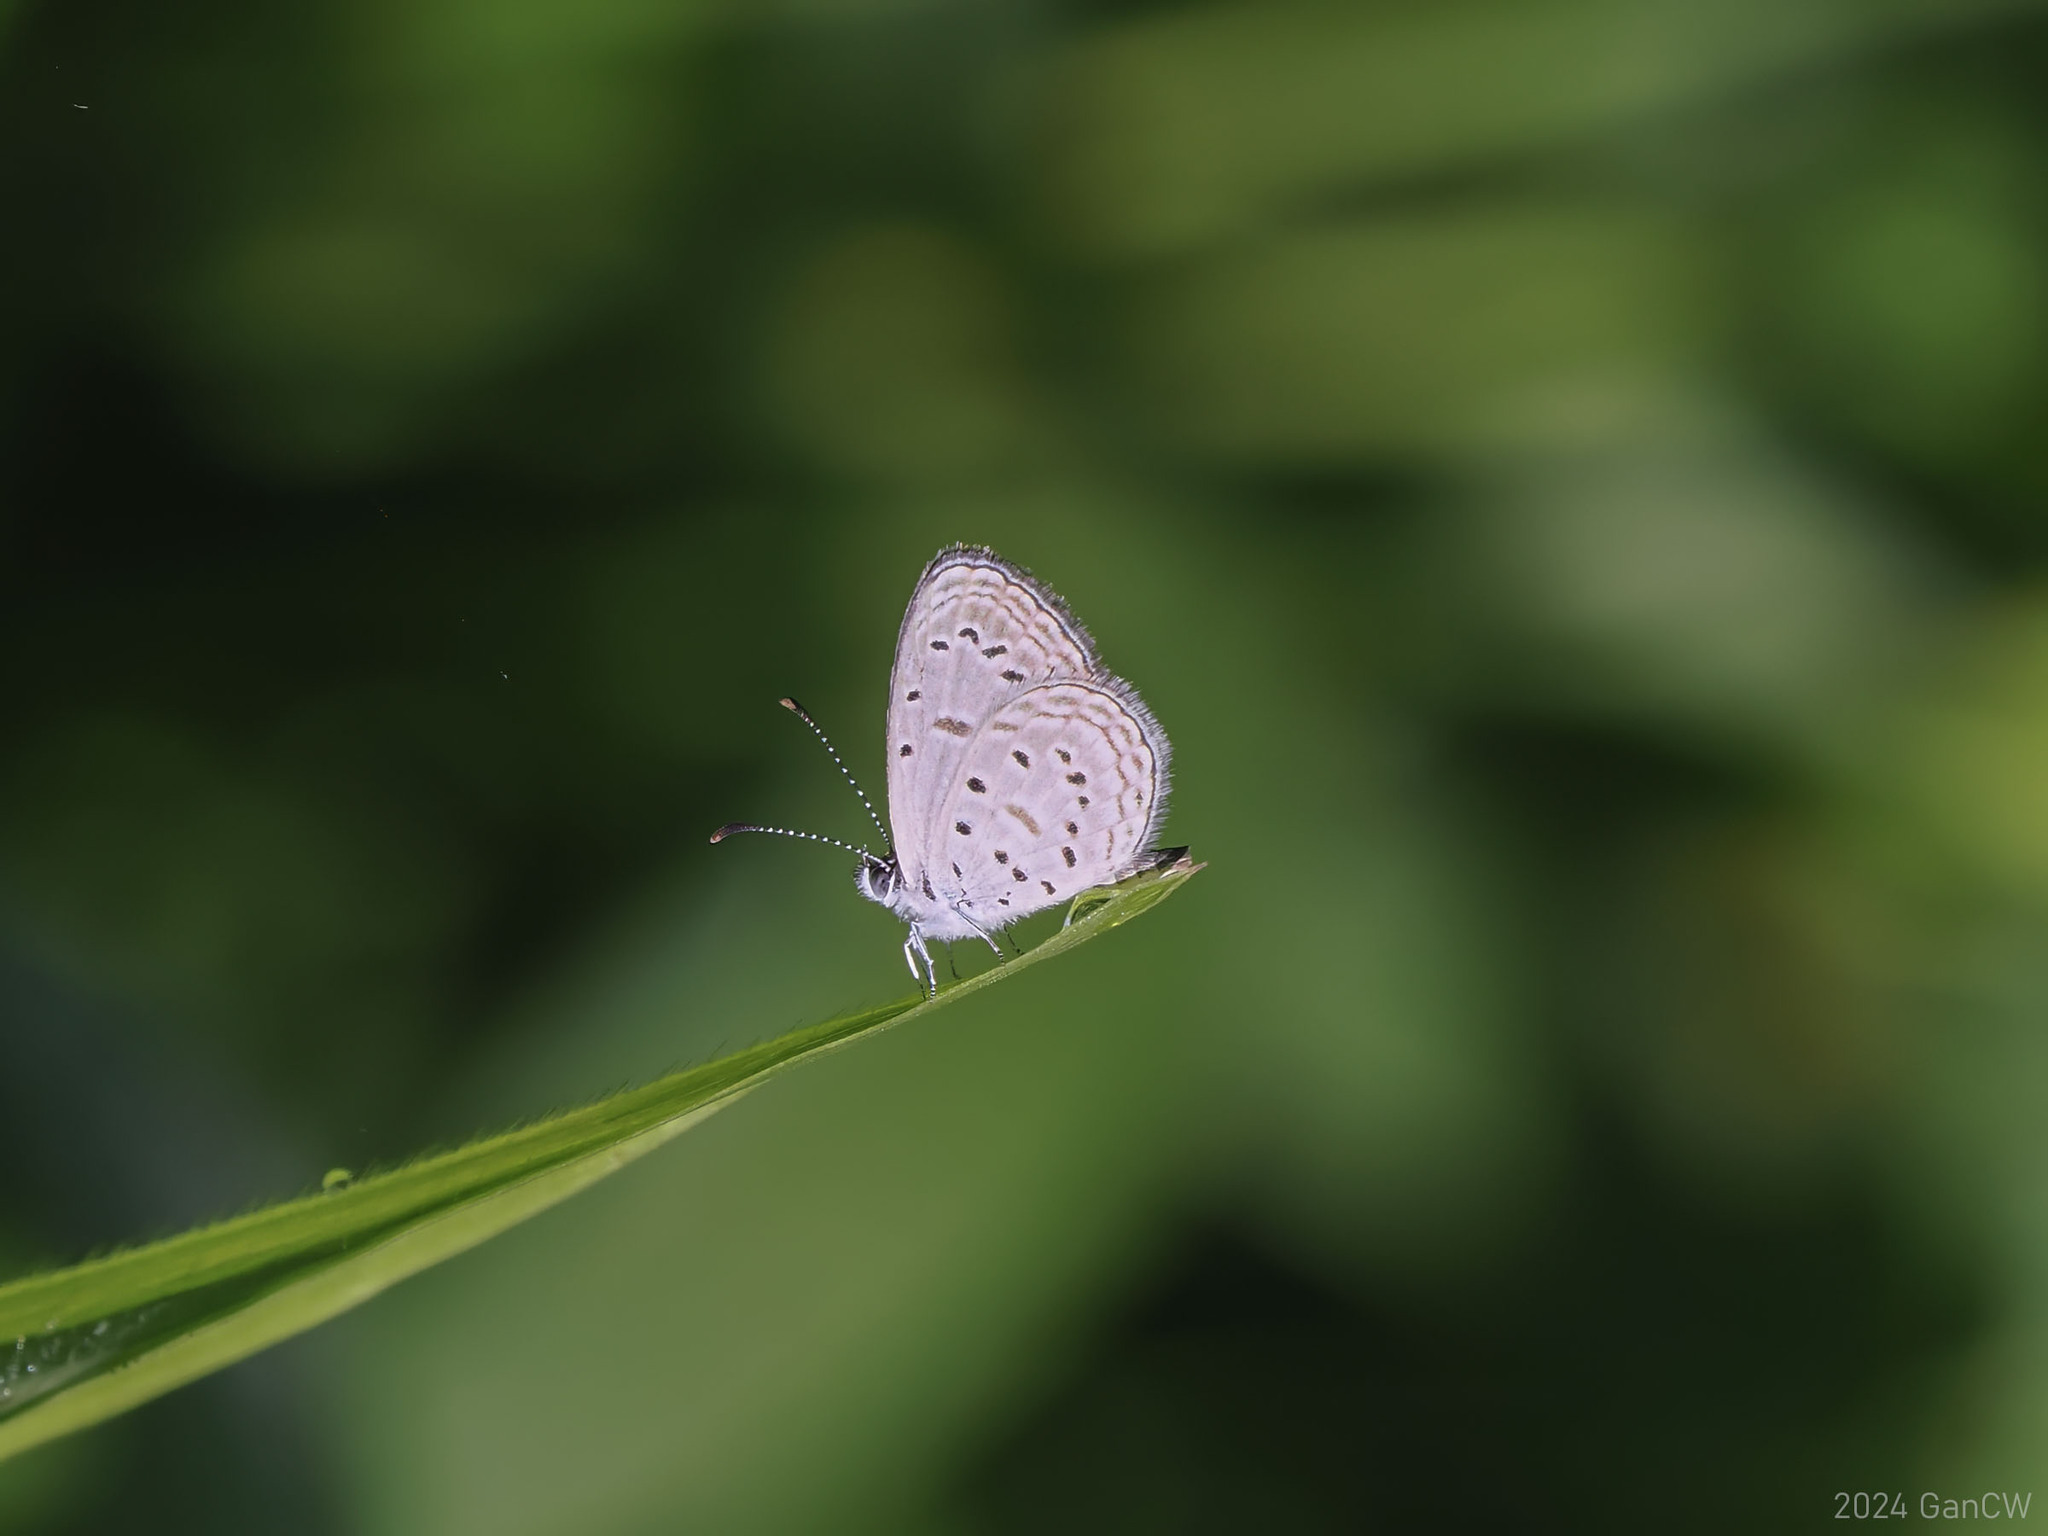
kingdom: Animalia
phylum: Arthropoda
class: Insecta
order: Lepidoptera
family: Lycaenidae
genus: Zizula
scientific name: Zizula hylax
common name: Gaika blue
